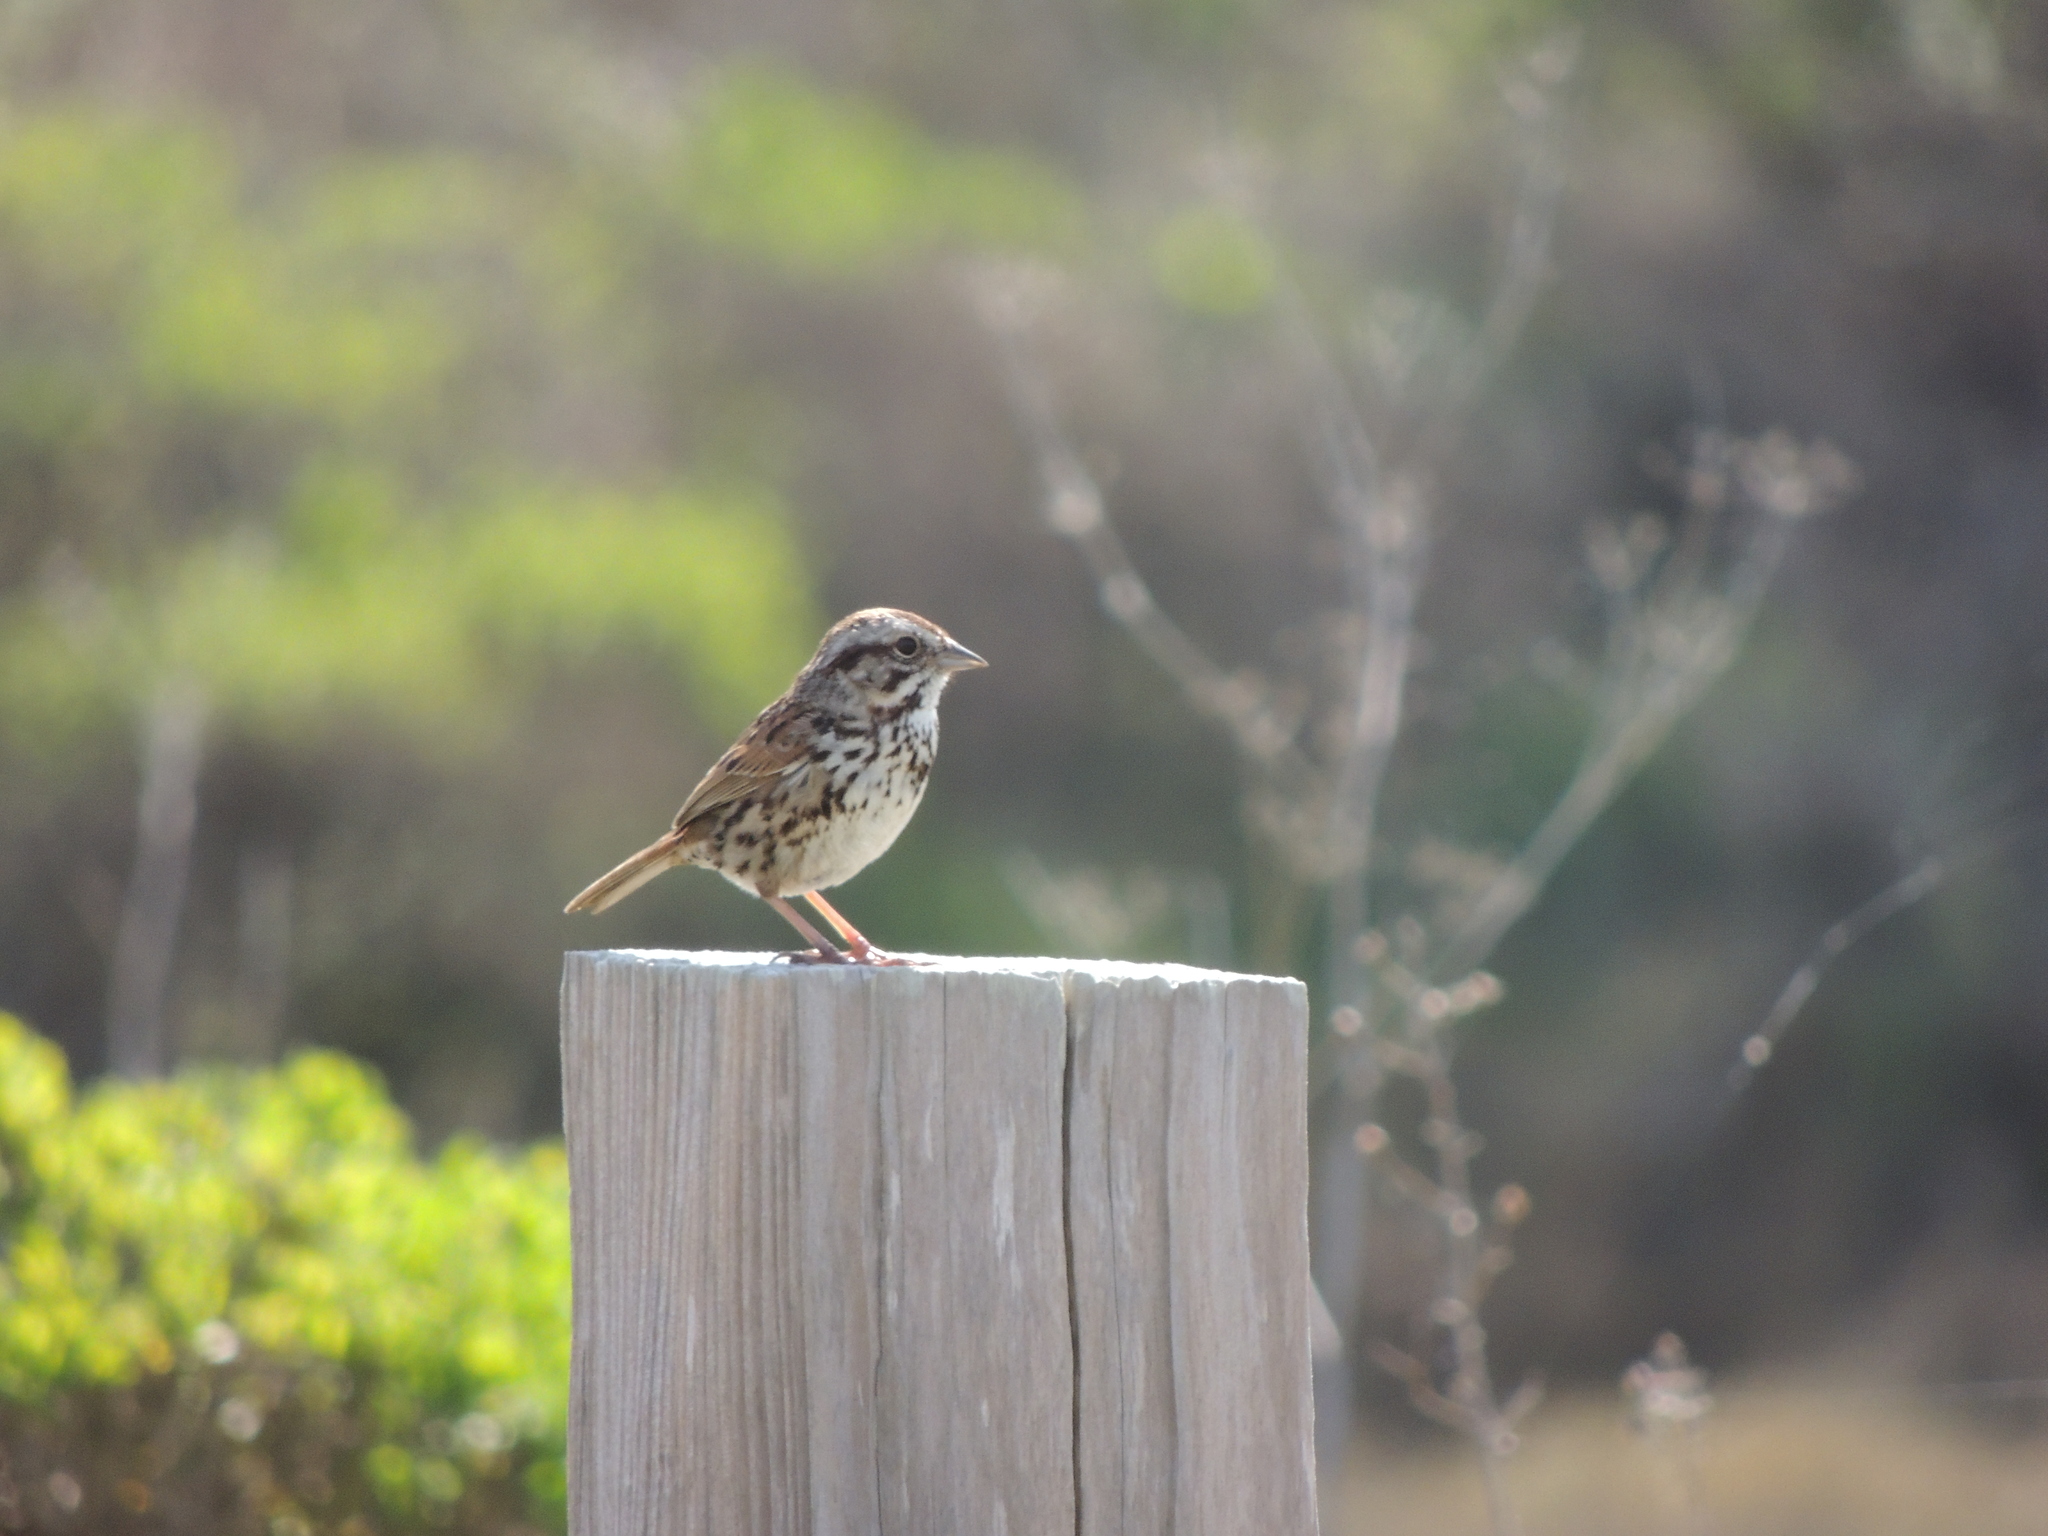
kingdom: Animalia
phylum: Chordata
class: Aves
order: Passeriformes
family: Passerellidae
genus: Melospiza
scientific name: Melospiza melodia
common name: Song sparrow
